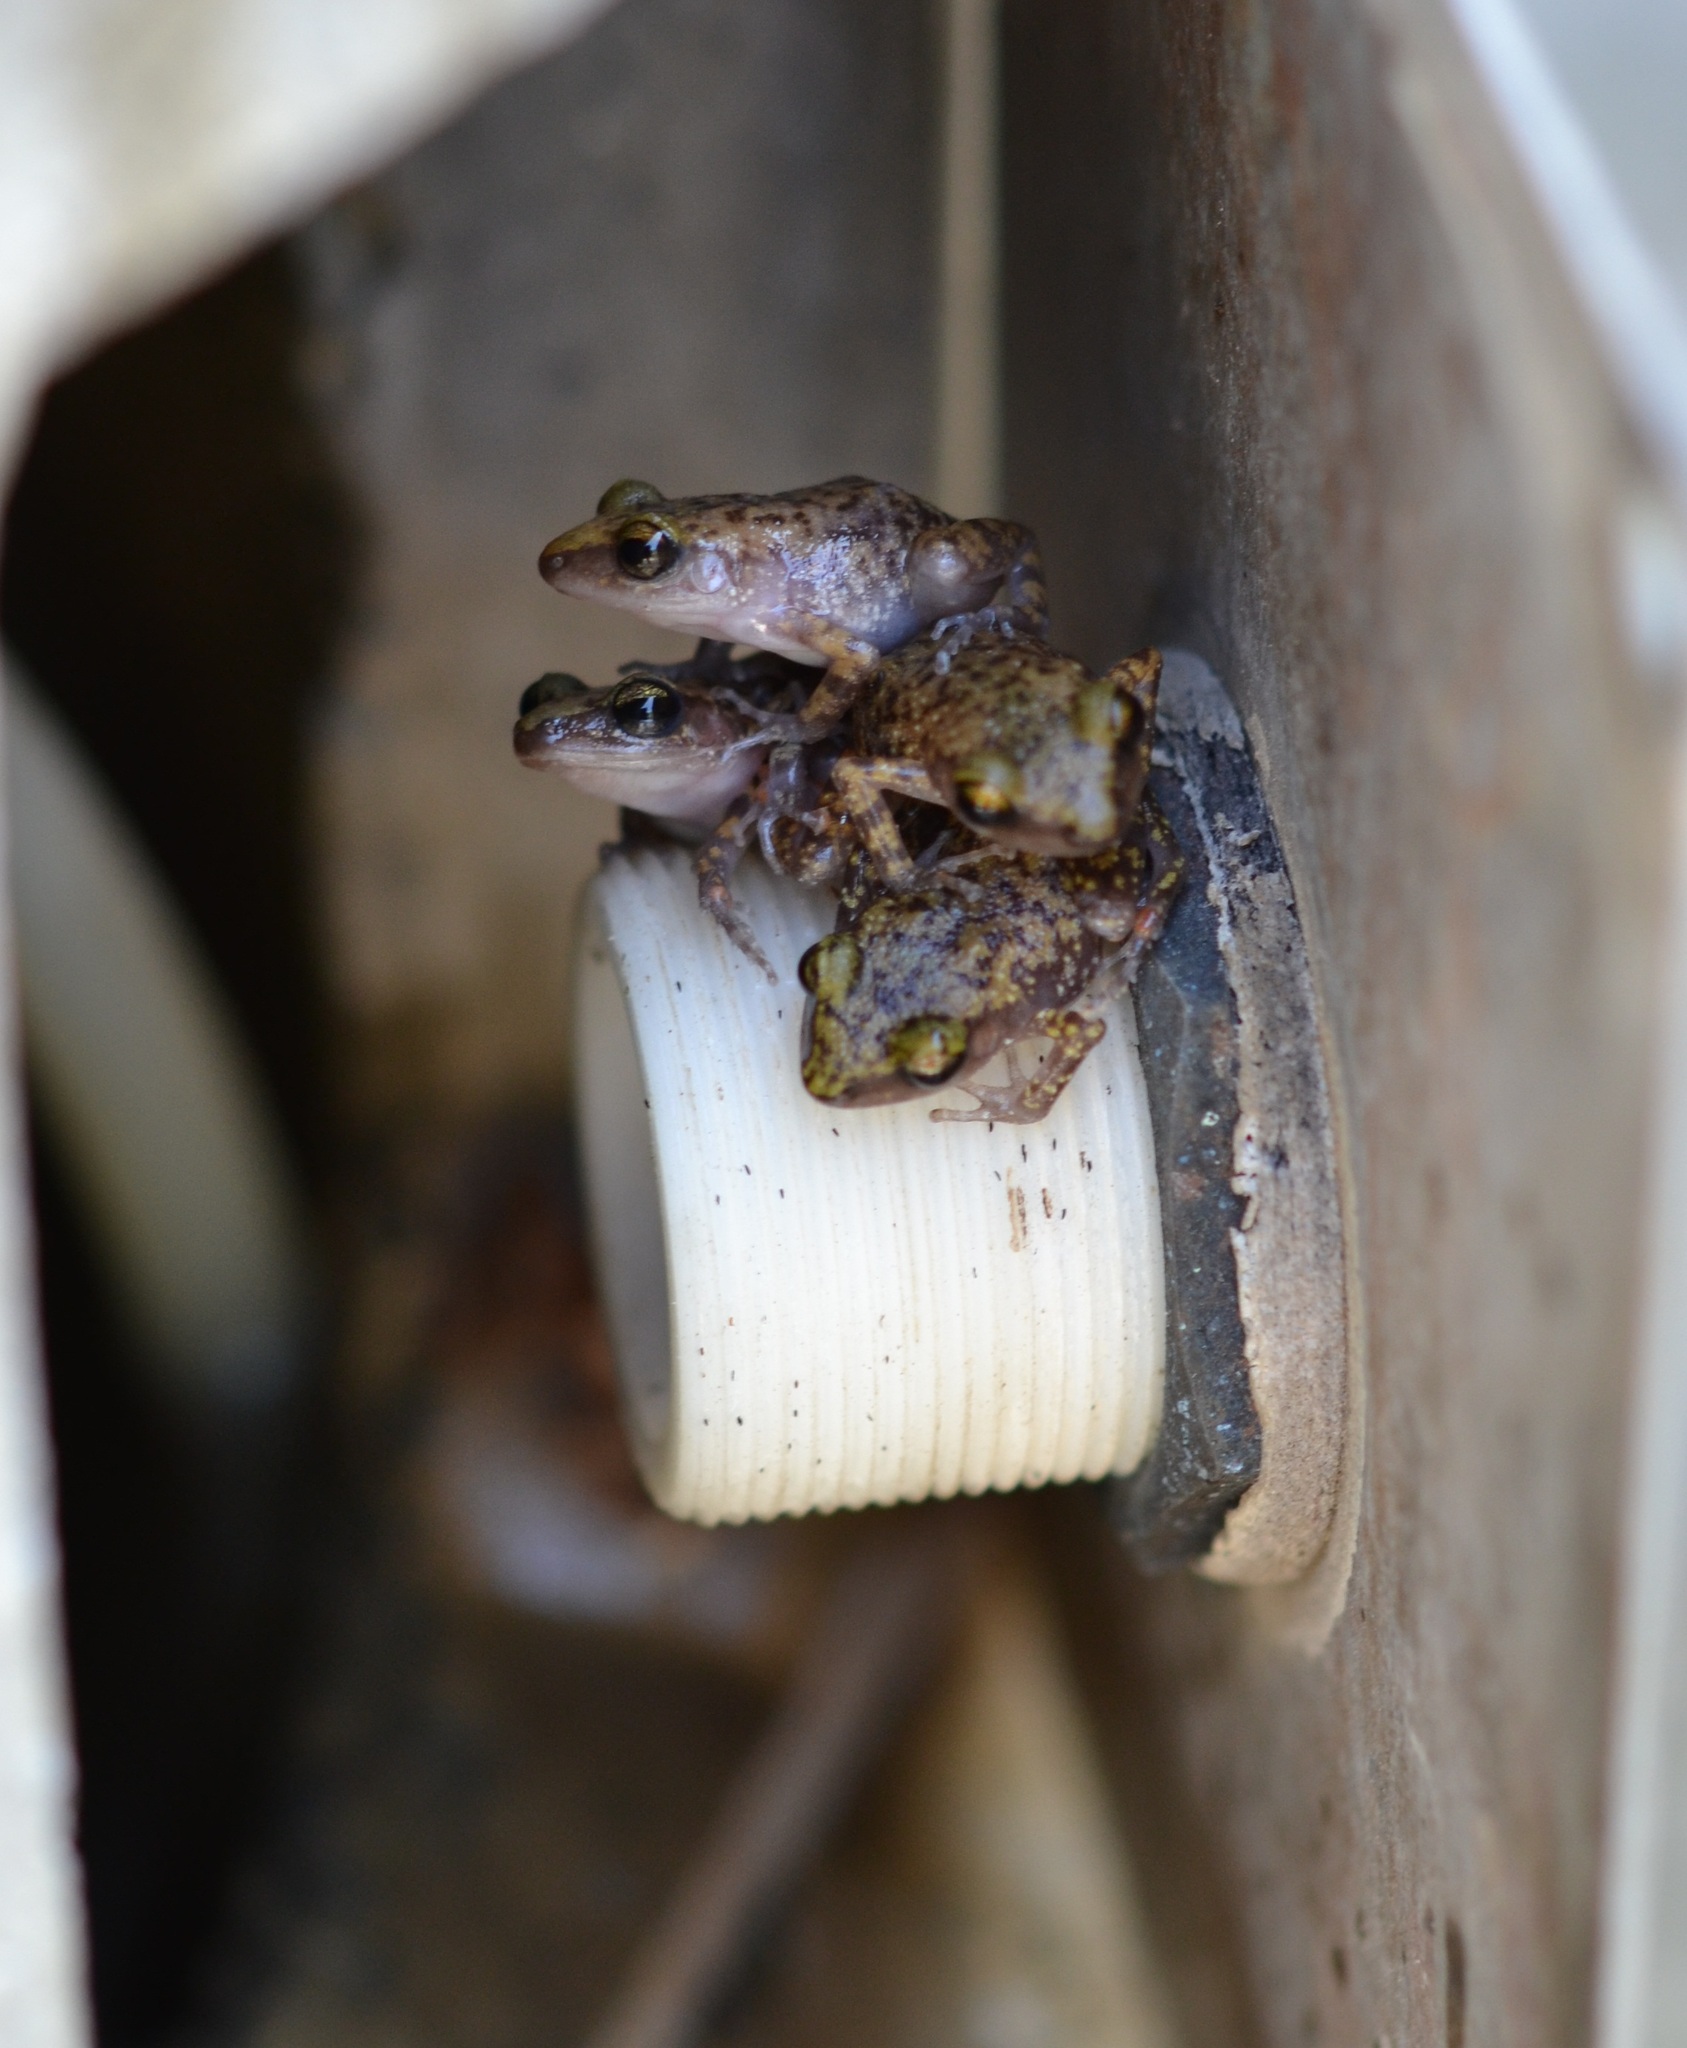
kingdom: Animalia
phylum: Chordata
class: Amphibia
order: Anura
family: Eleutherodactylidae
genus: Eleutherodactylus
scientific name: Eleutherodactylus marnockii
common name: Cliff chirping frog
